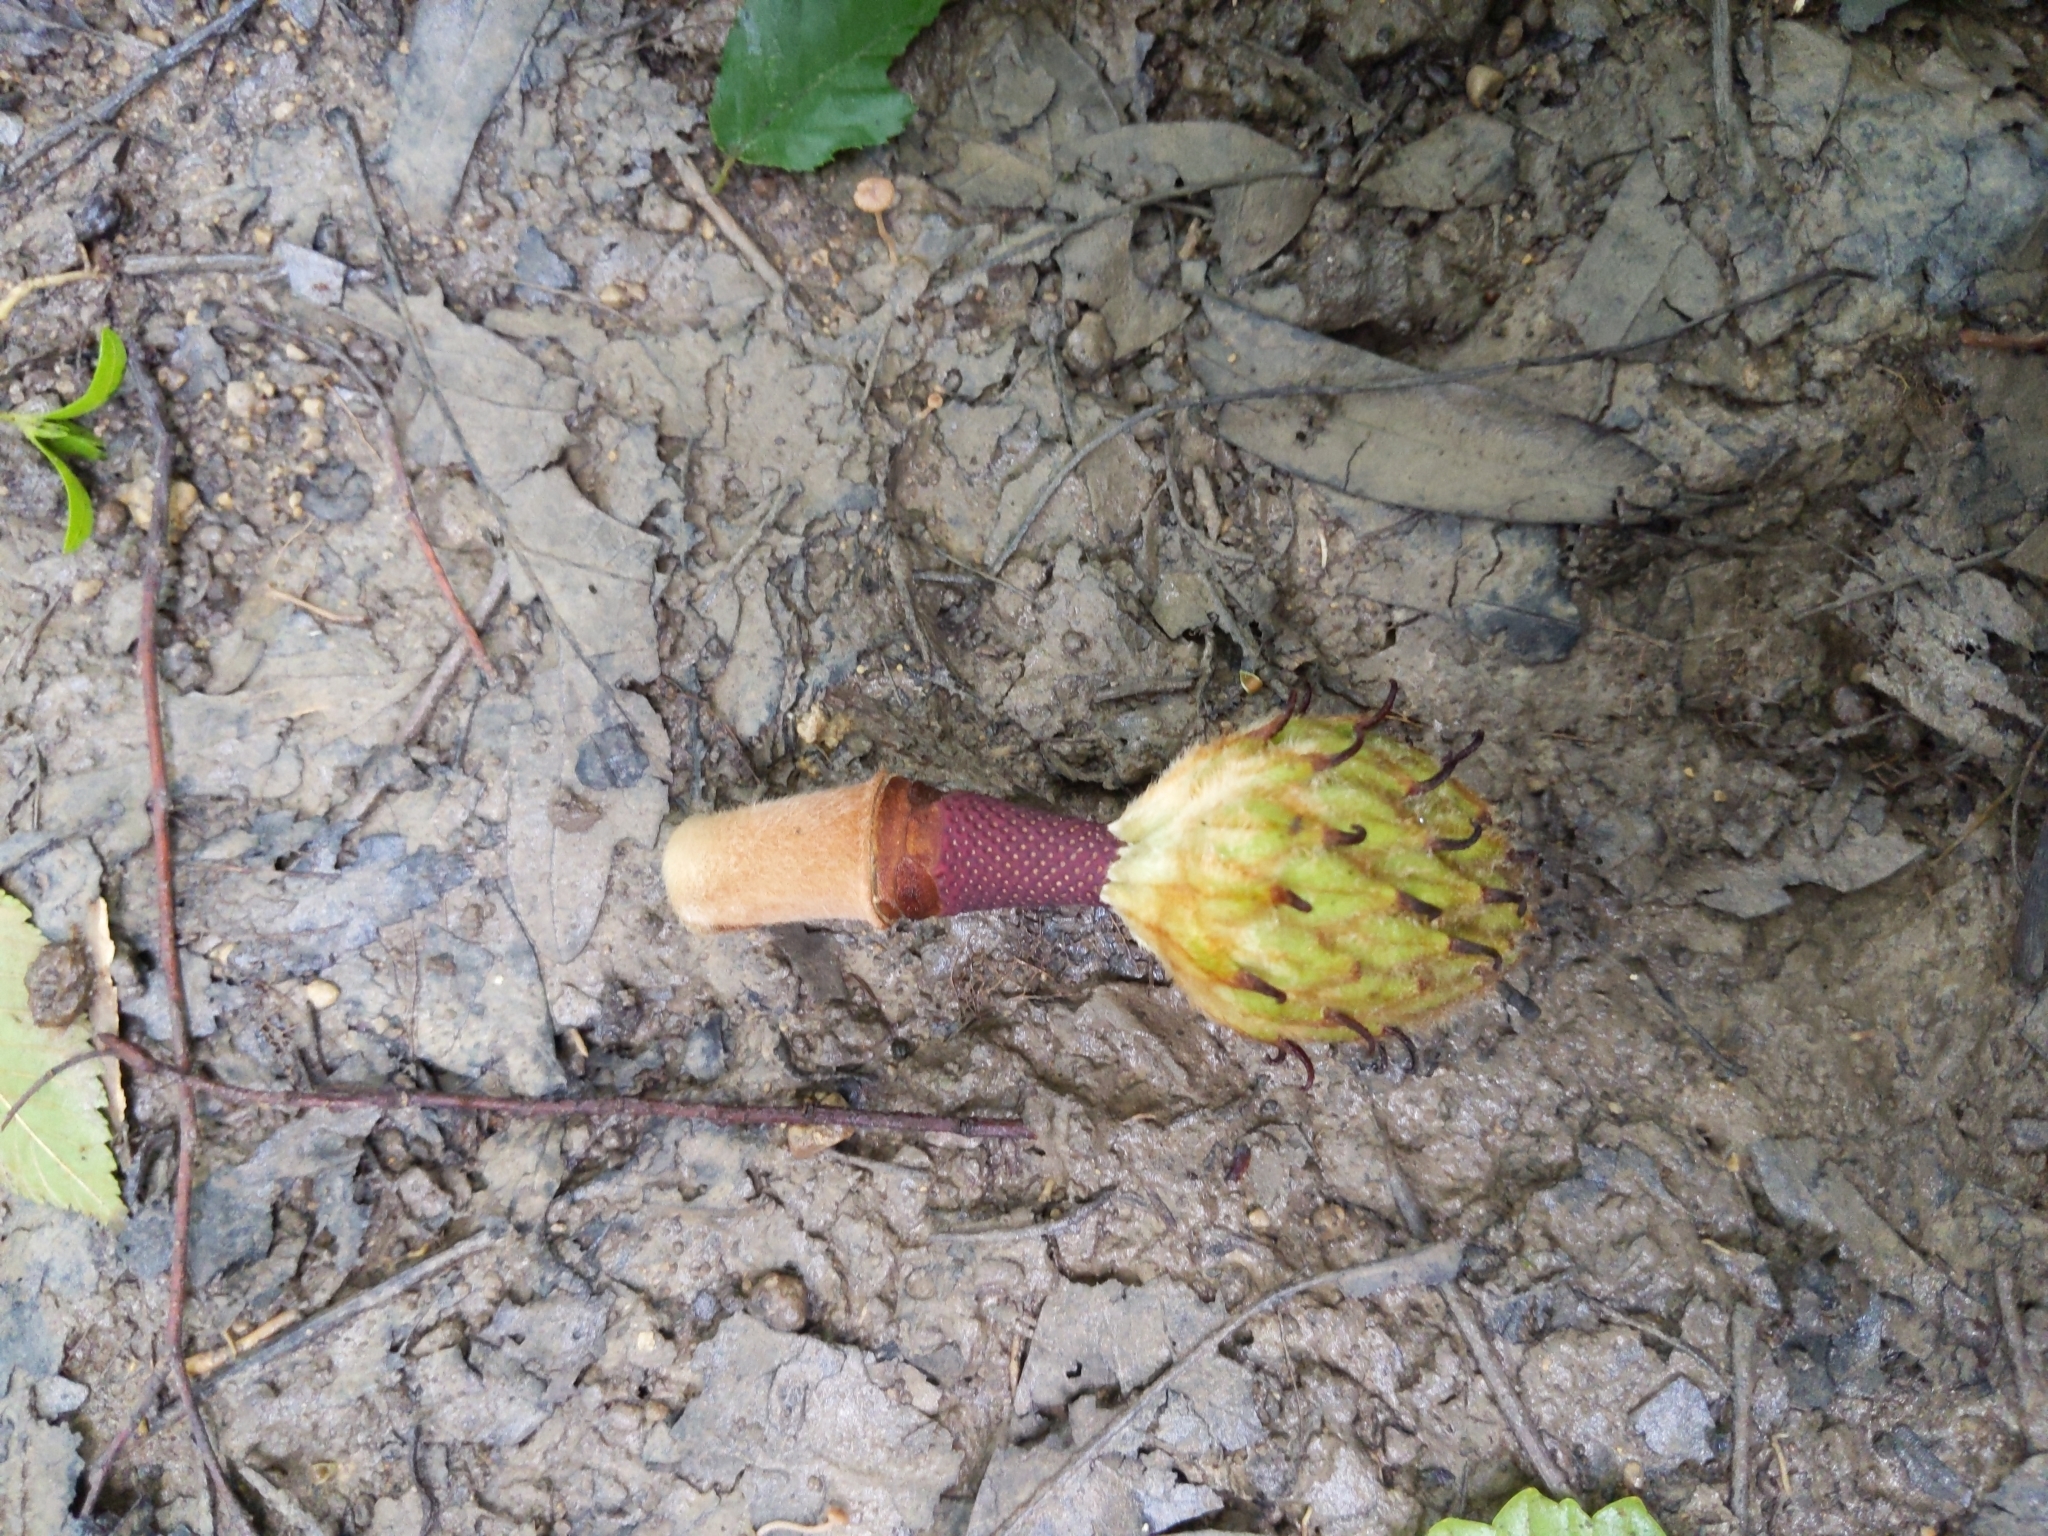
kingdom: Plantae
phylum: Tracheophyta
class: Magnoliopsida
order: Magnoliales
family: Magnoliaceae
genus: Magnolia
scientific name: Magnolia grandiflora
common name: Southern magnolia
